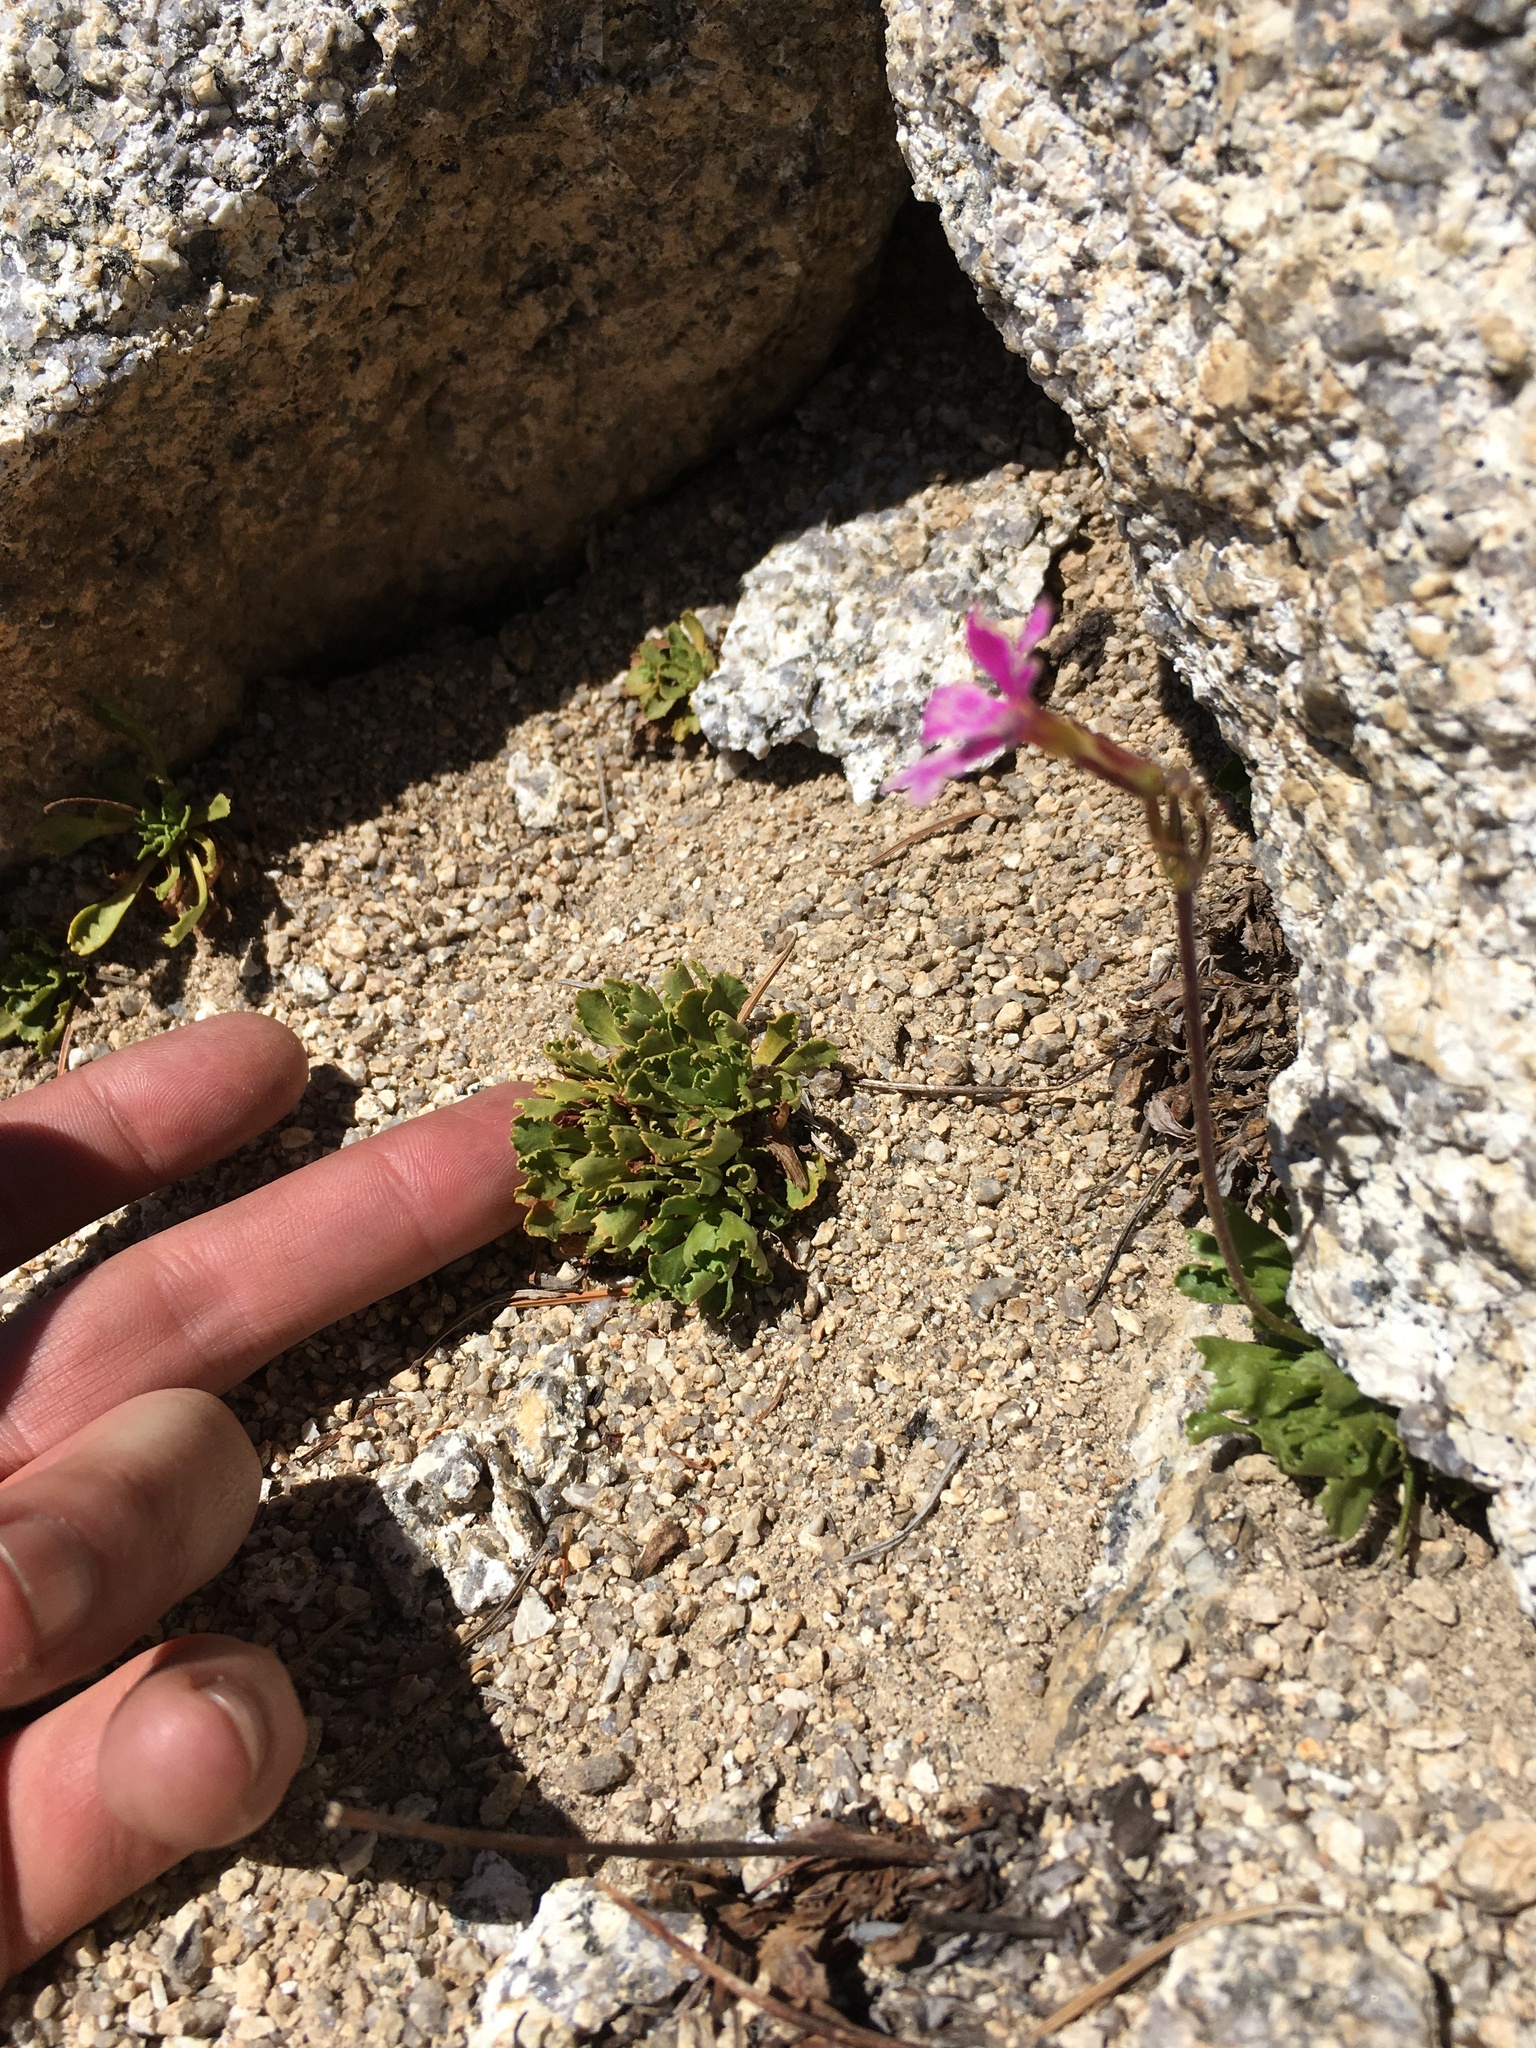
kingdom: Plantae
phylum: Tracheophyta
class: Magnoliopsida
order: Ericales
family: Primulaceae
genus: Primula
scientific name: Primula suffrutescens
